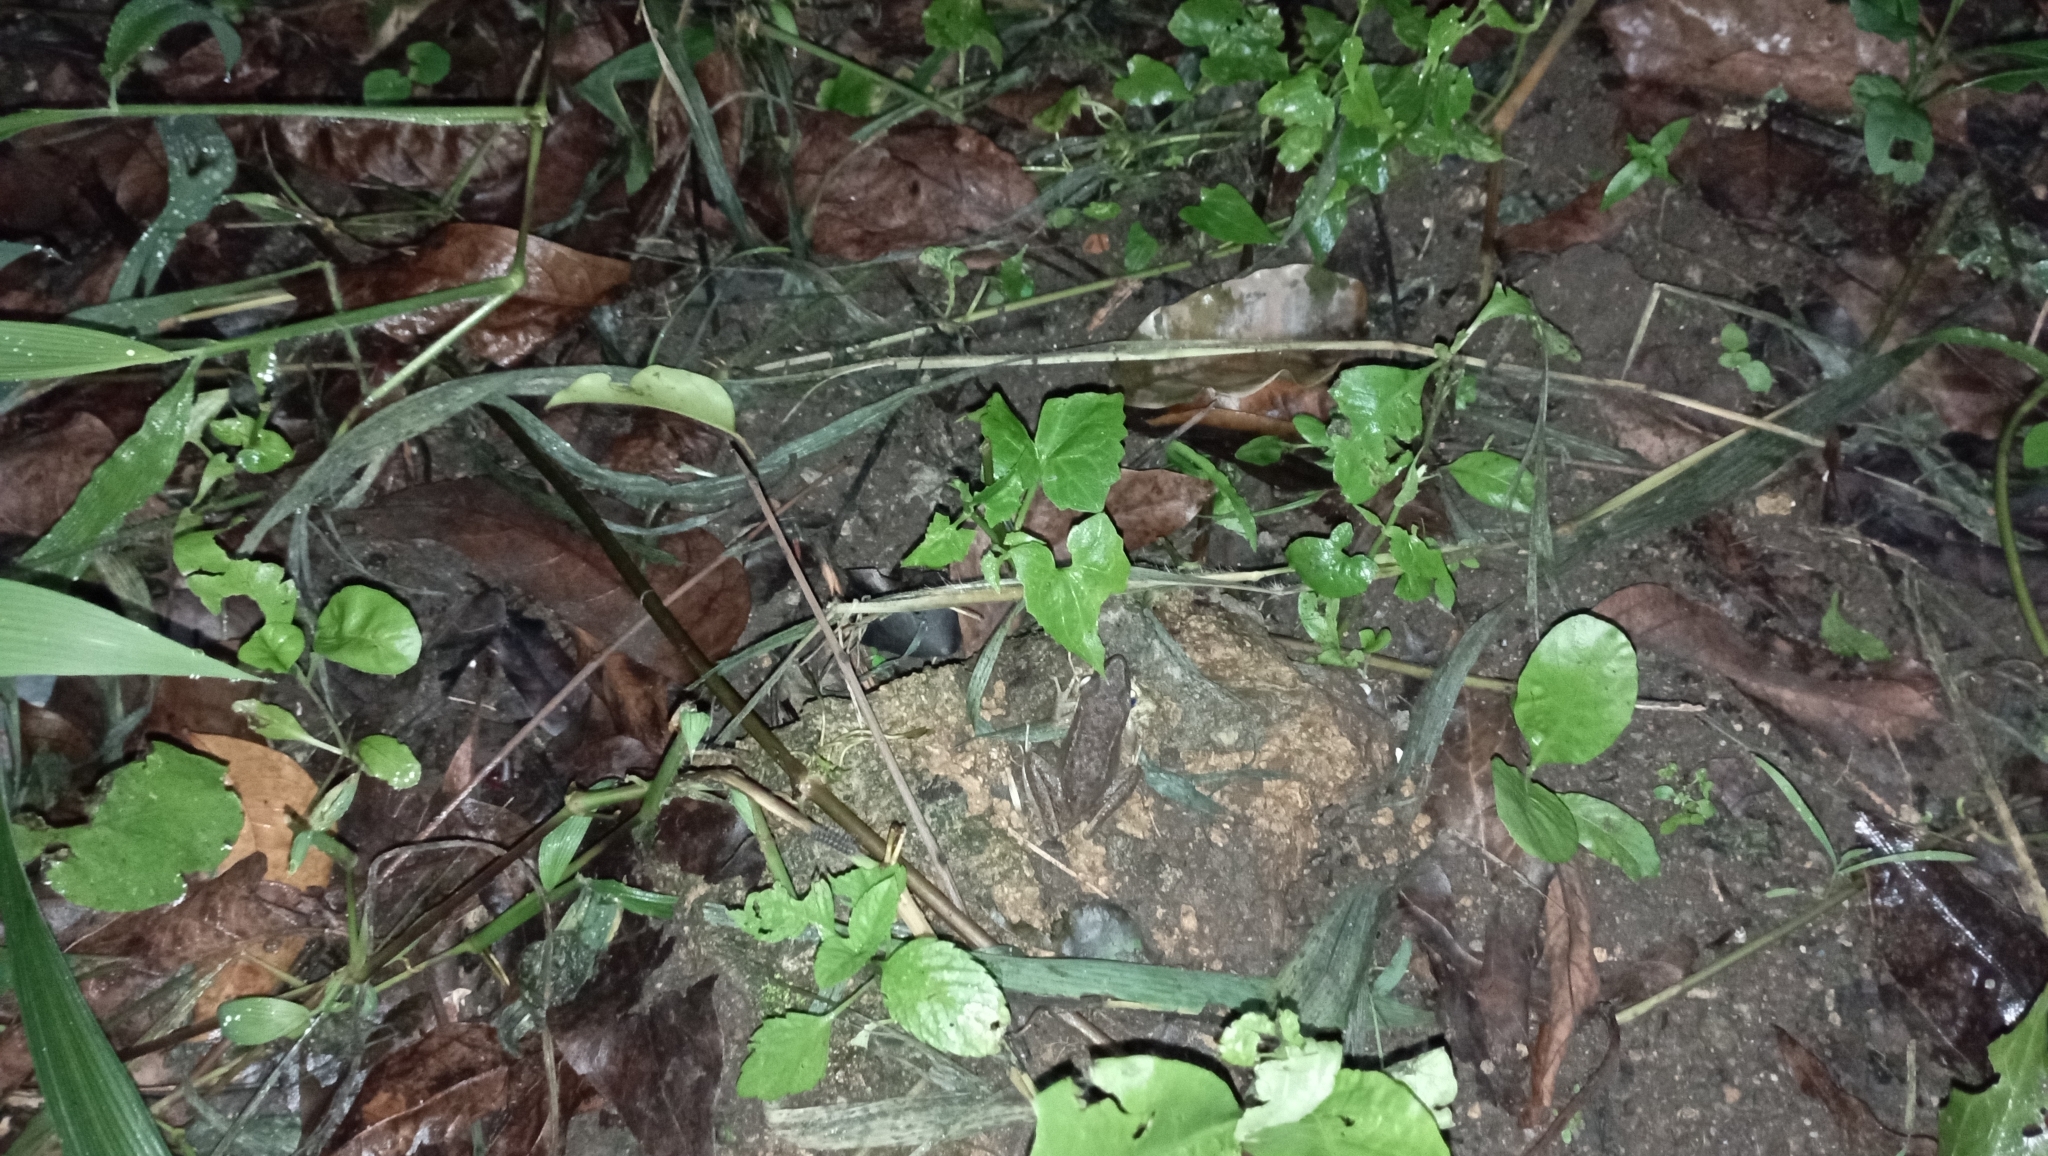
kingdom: Animalia
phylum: Chordata
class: Amphibia
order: Anura
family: Ranidae
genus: Chalcorana
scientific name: Chalcorana chalconota
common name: Schlegel's frog
